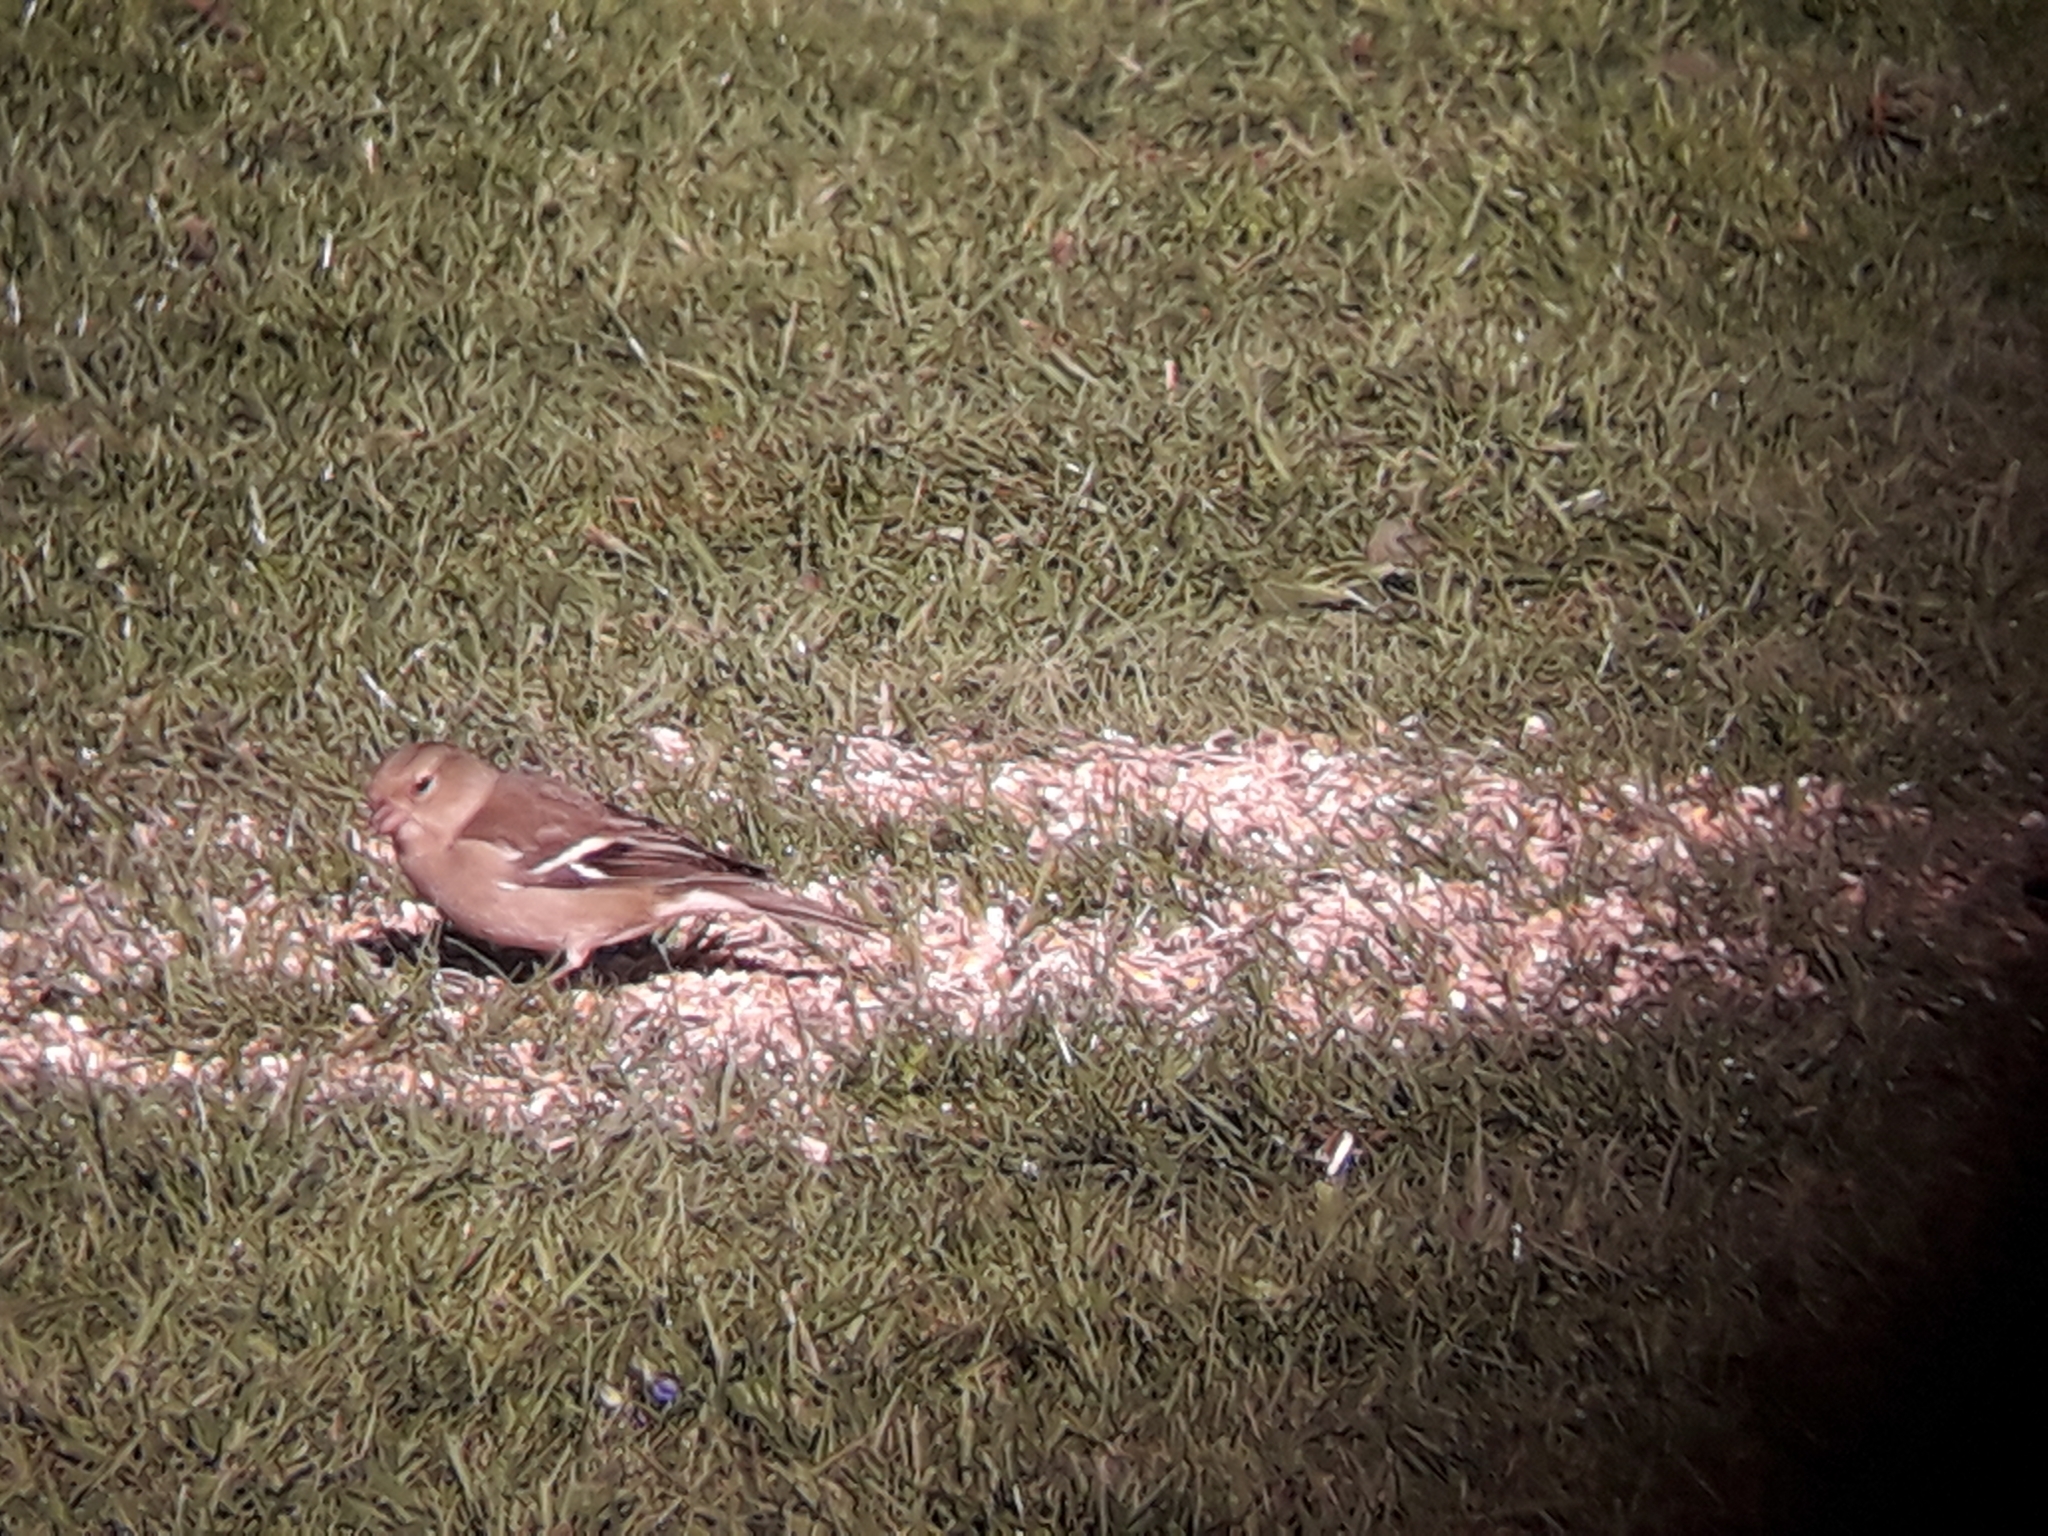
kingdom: Animalia
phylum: Chordata
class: Aves
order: Passeriformes
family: Fringillidae
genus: Fringilla
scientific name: Fringilla coelebs
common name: Common chaffinch
